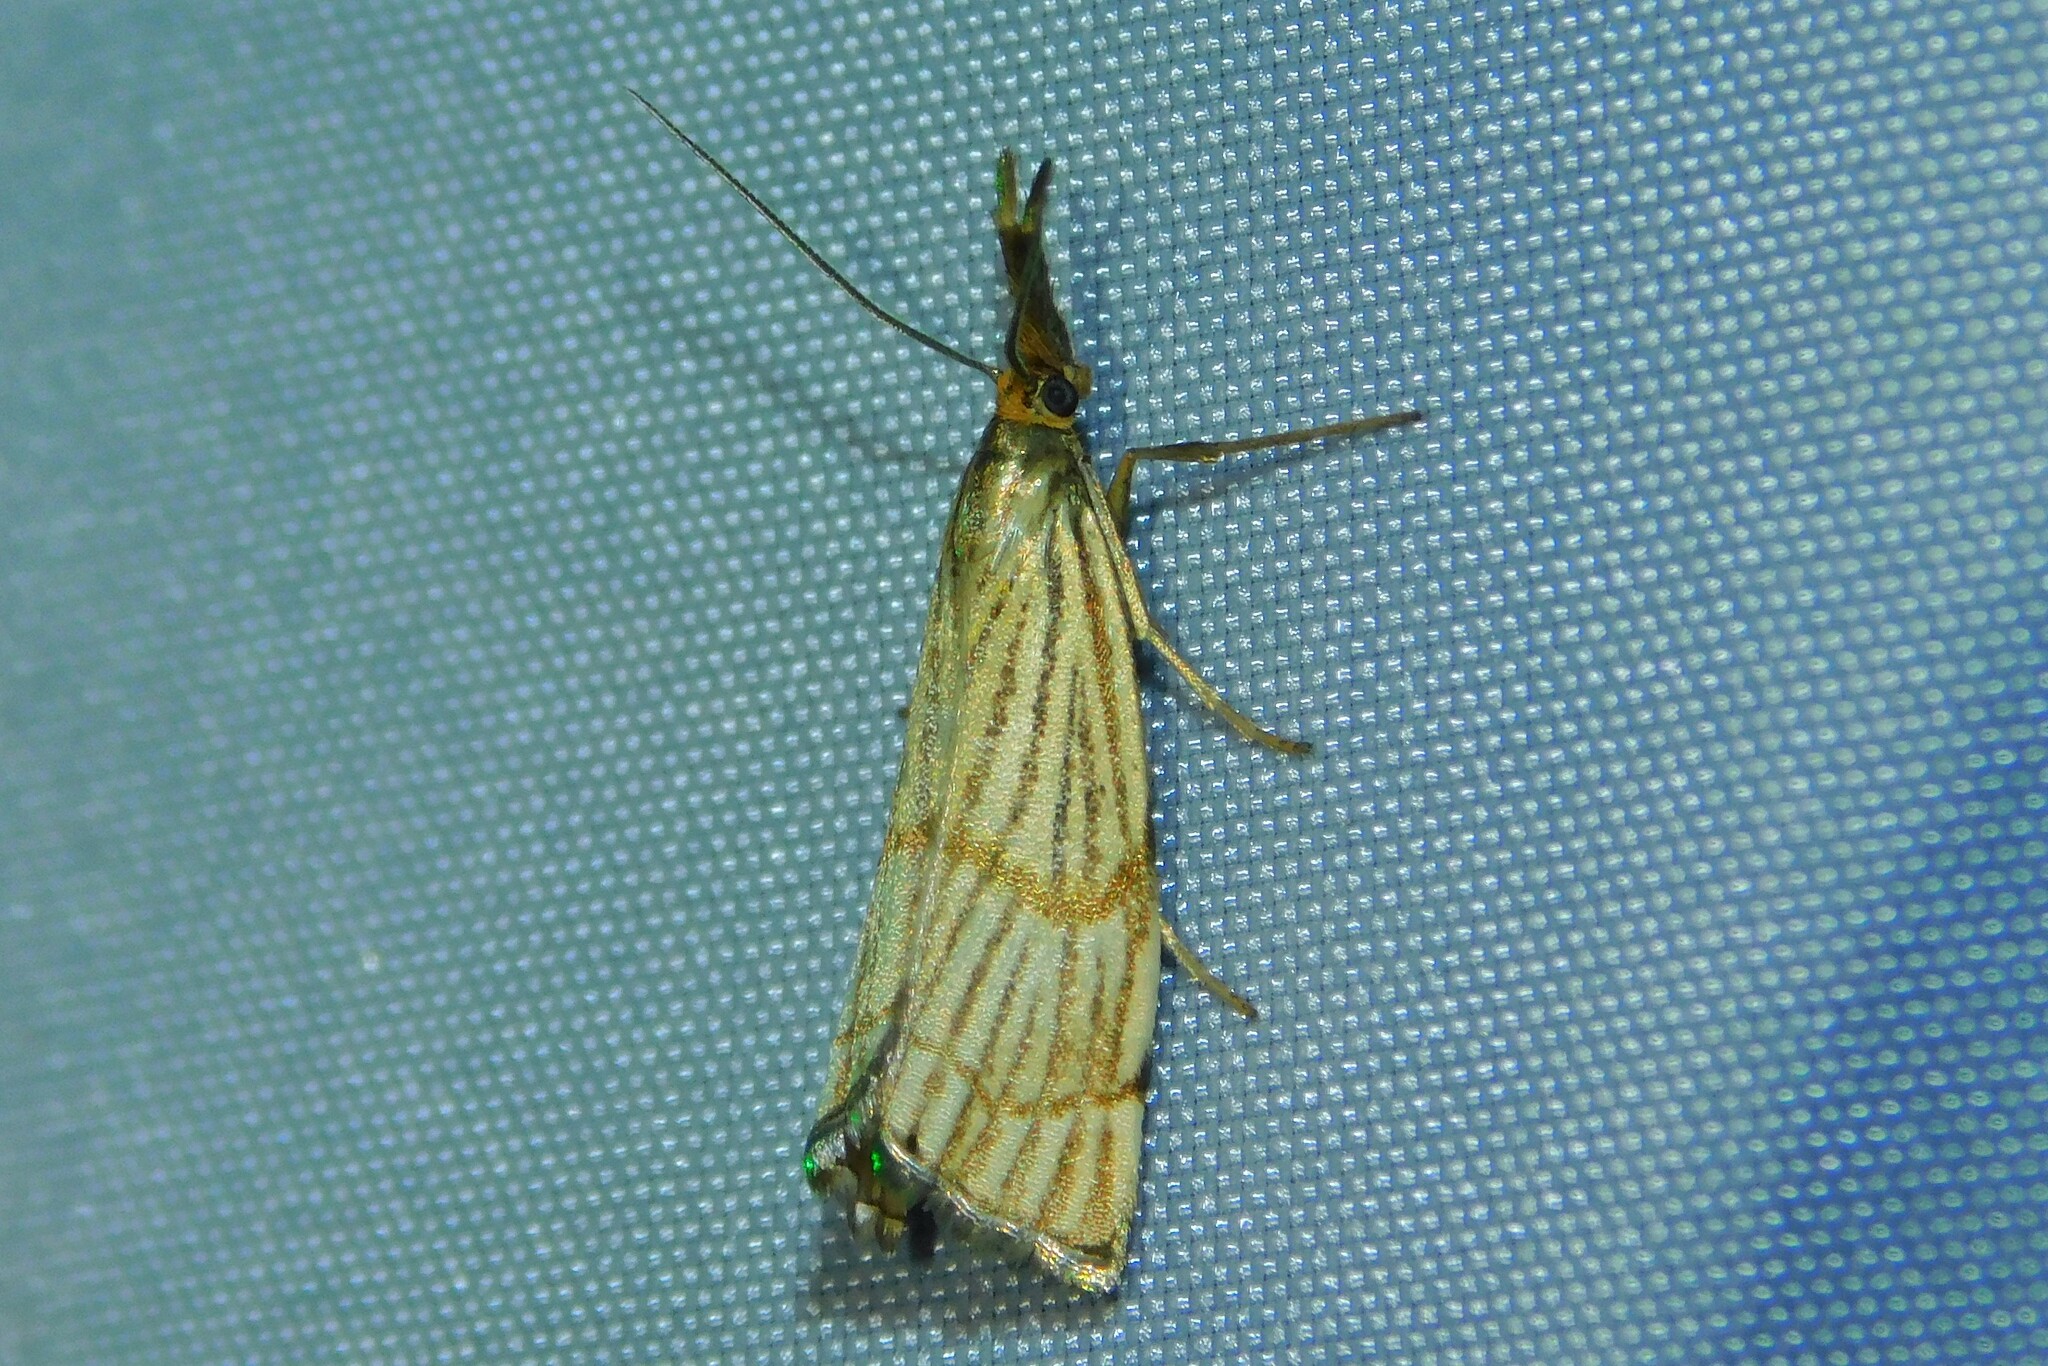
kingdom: Animalia
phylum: Arthropoda
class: Insecta
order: Lepidoptera
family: Crambidae
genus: Chrysocrambus
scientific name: Chrysocrambus linetella
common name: Orange-bar grass-veneer
